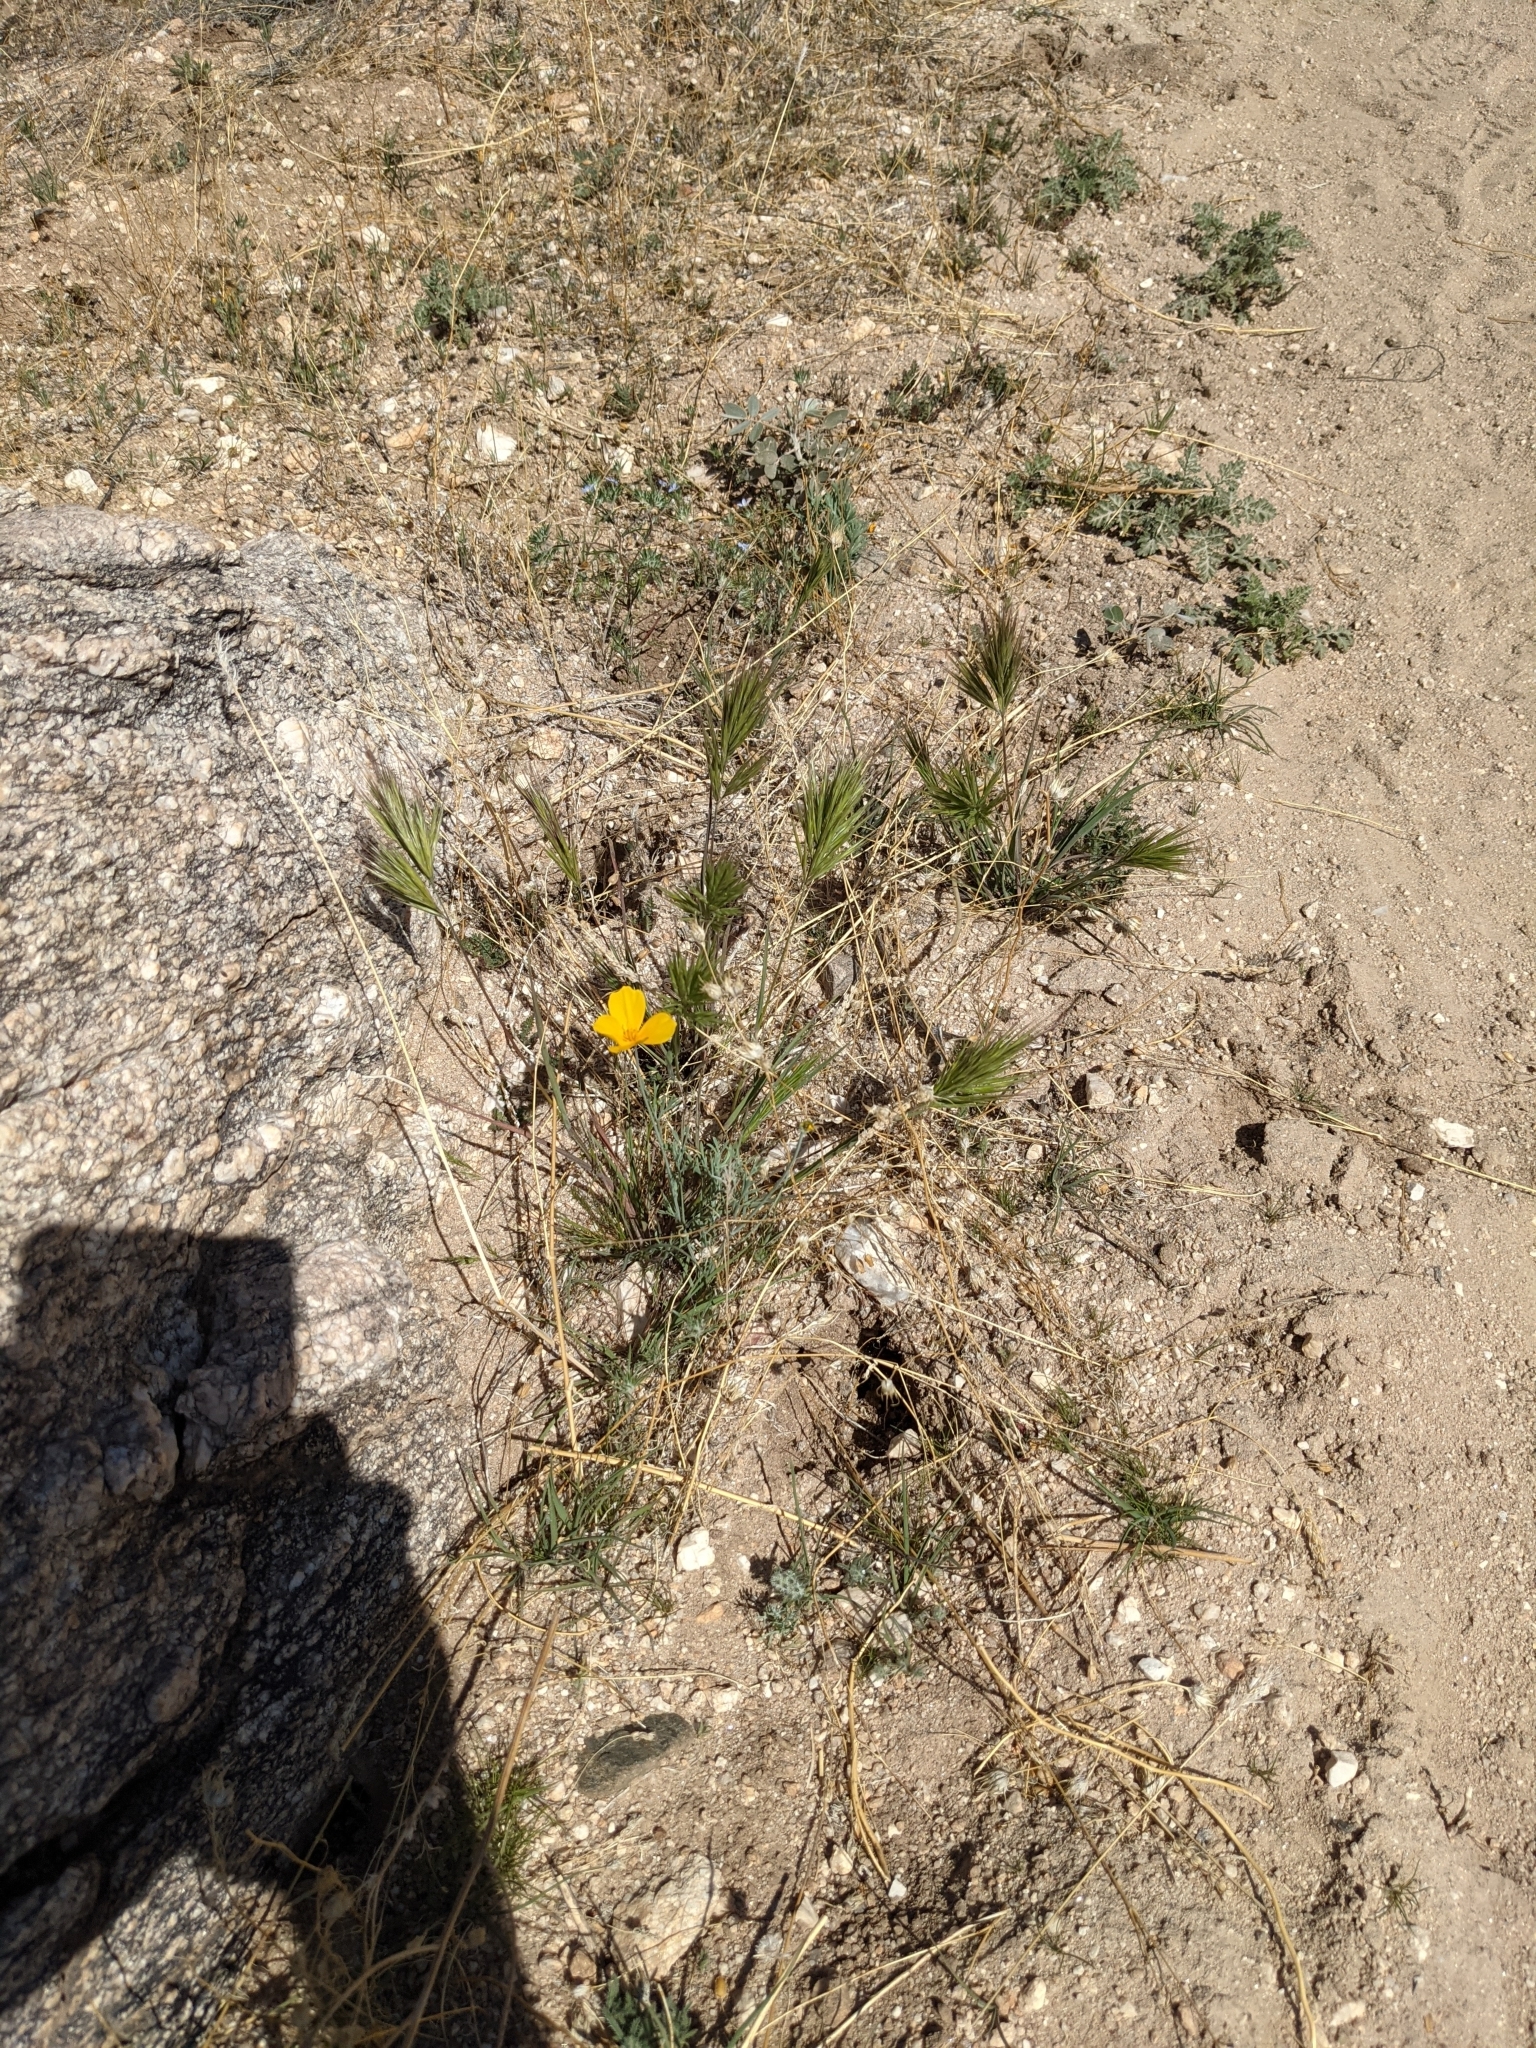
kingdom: Plantae
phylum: Tracheophyta
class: Magnoliopsida
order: Ranunculales
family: Papaveraceae
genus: Eschscholzia
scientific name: Eschscholzia californica
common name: California poppy
